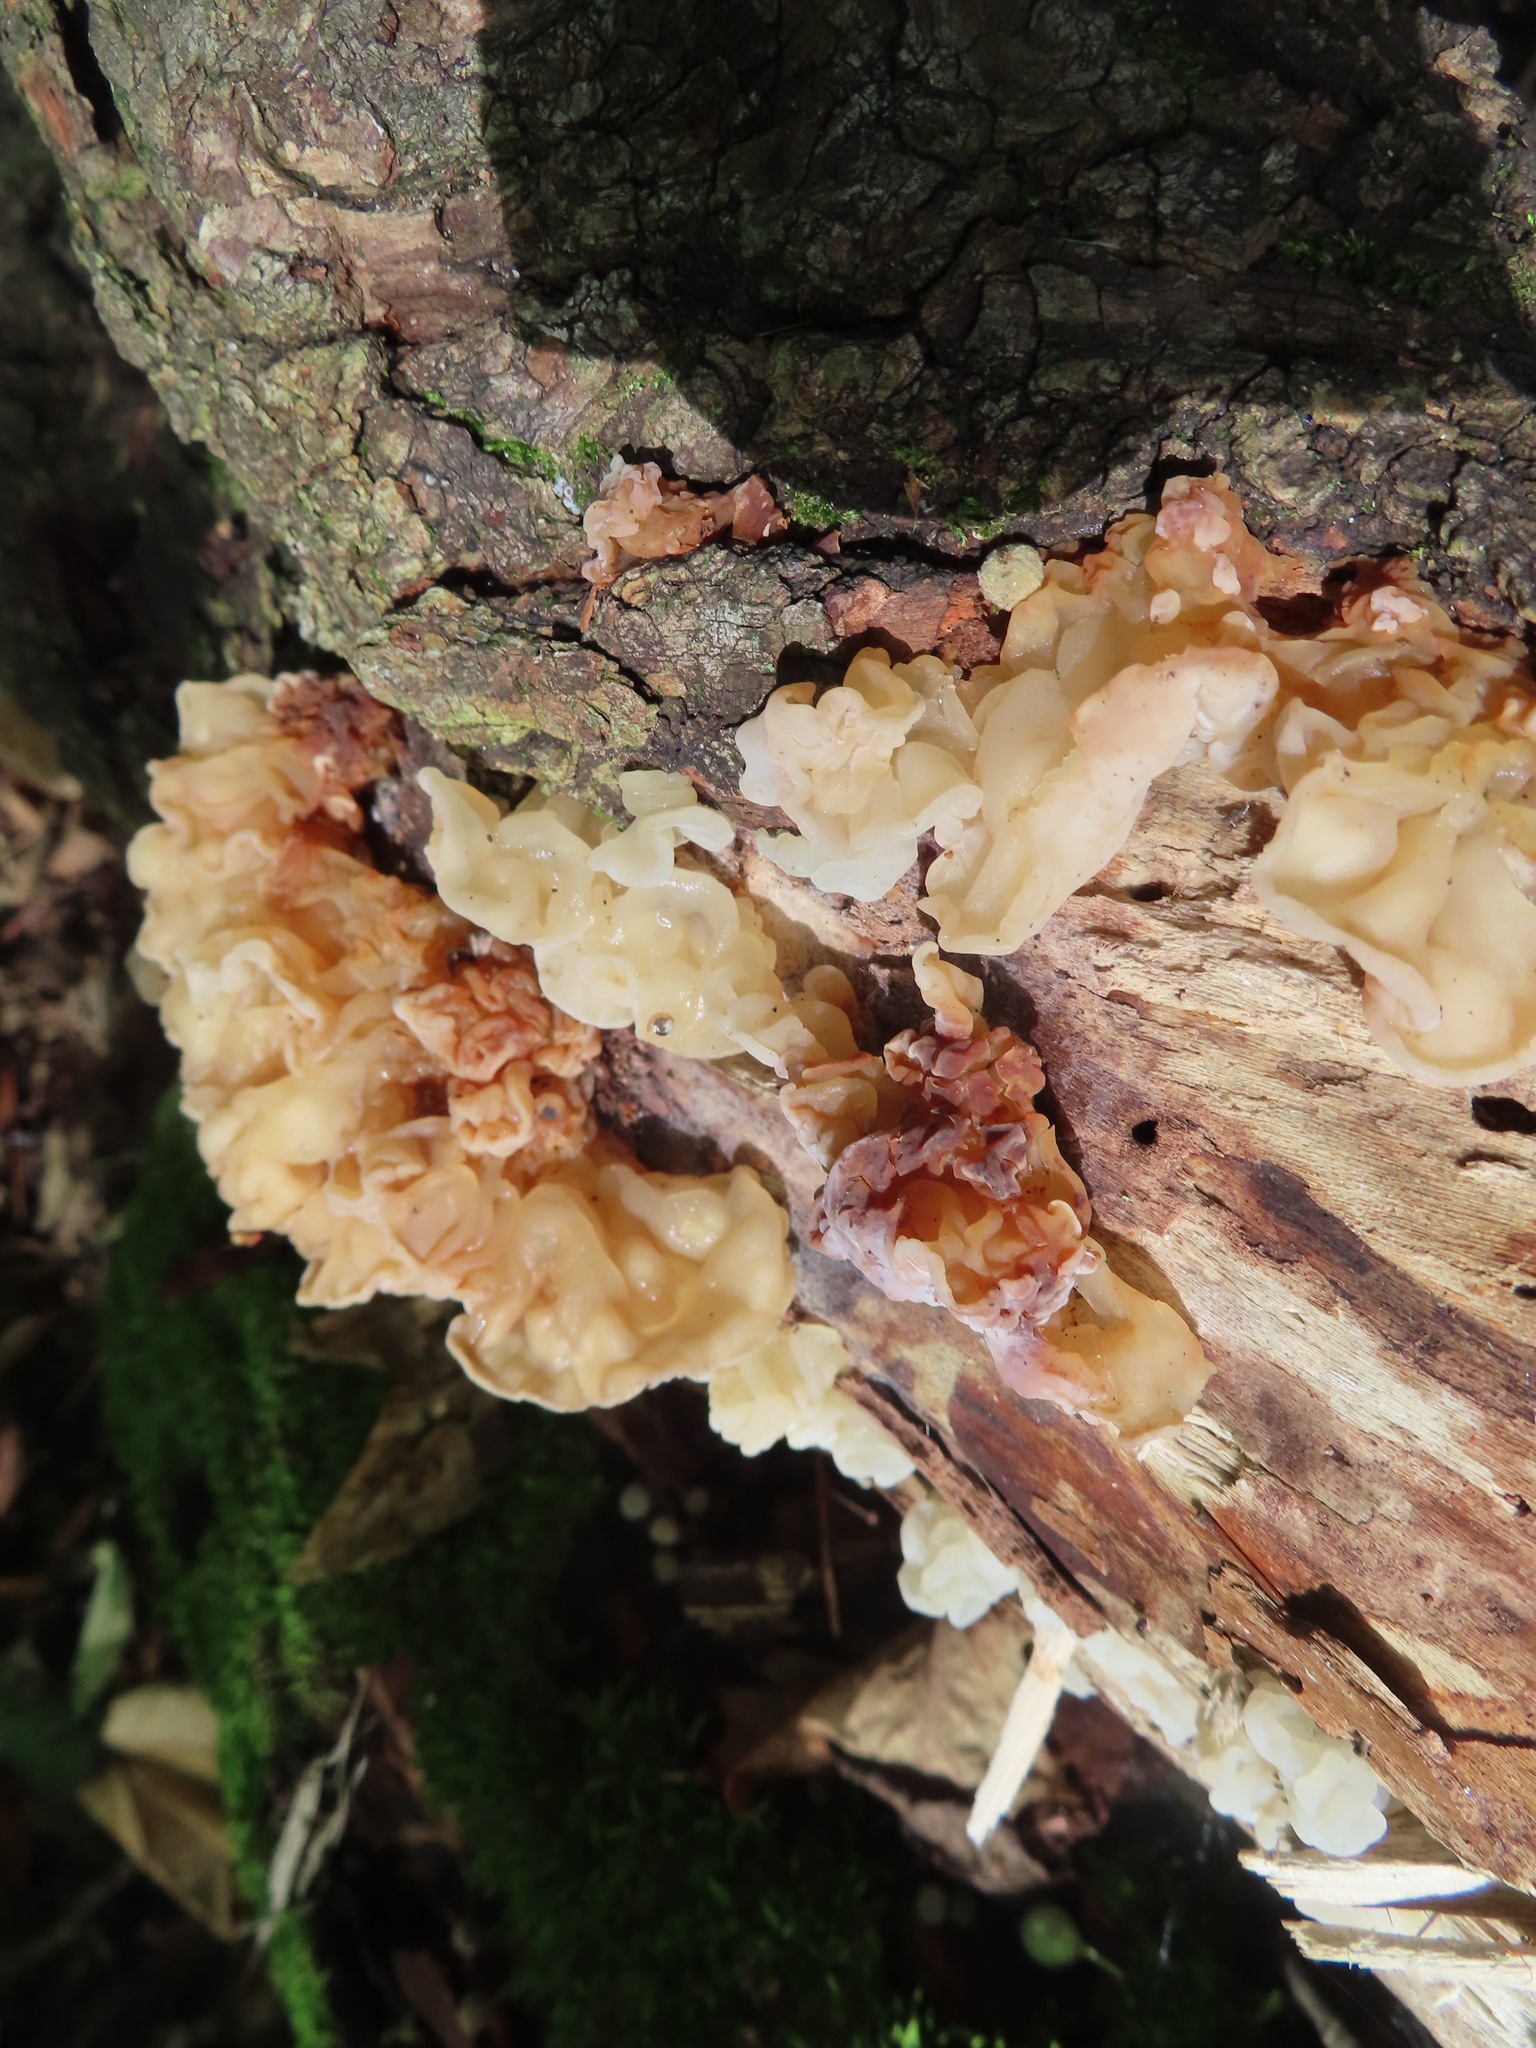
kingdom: Fungi
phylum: Basidiomycota
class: Agaricomycetes
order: Auriculariales
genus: Ductifera
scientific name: Ductifera pululahuana
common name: White jelly fungus
